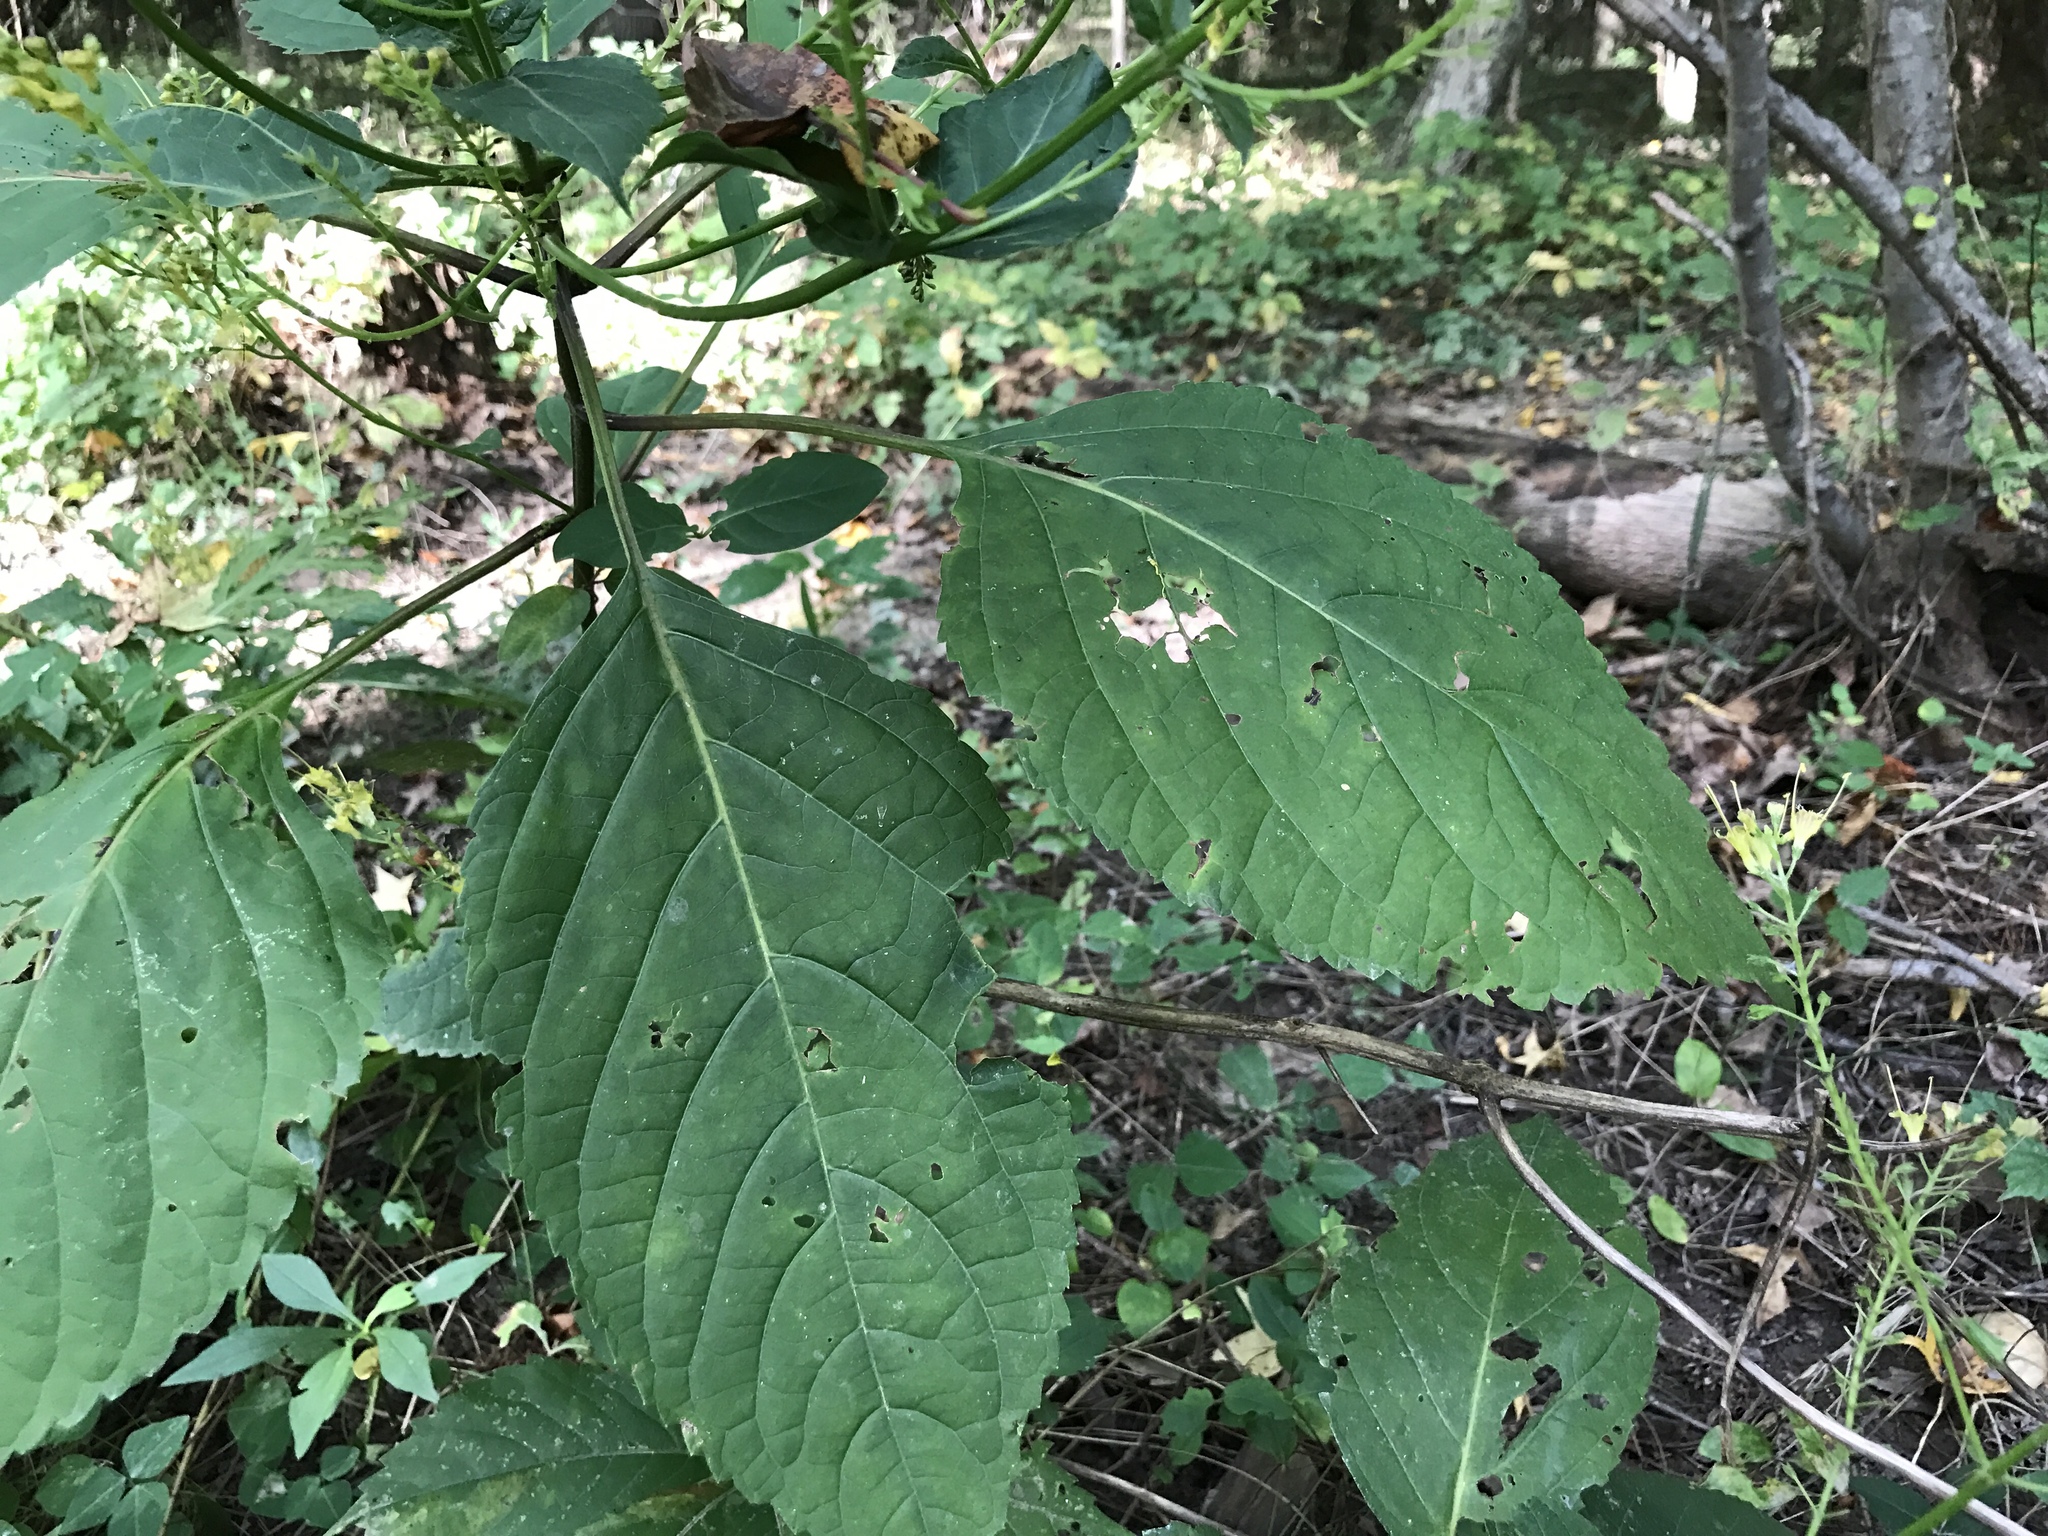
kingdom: Plantae
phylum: Tracheophyta
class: Magnoliopsida
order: Lamiales
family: Lamiaceae
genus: Collinsonia
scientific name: Collinsonia canadensis
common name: Northern horsebalm
